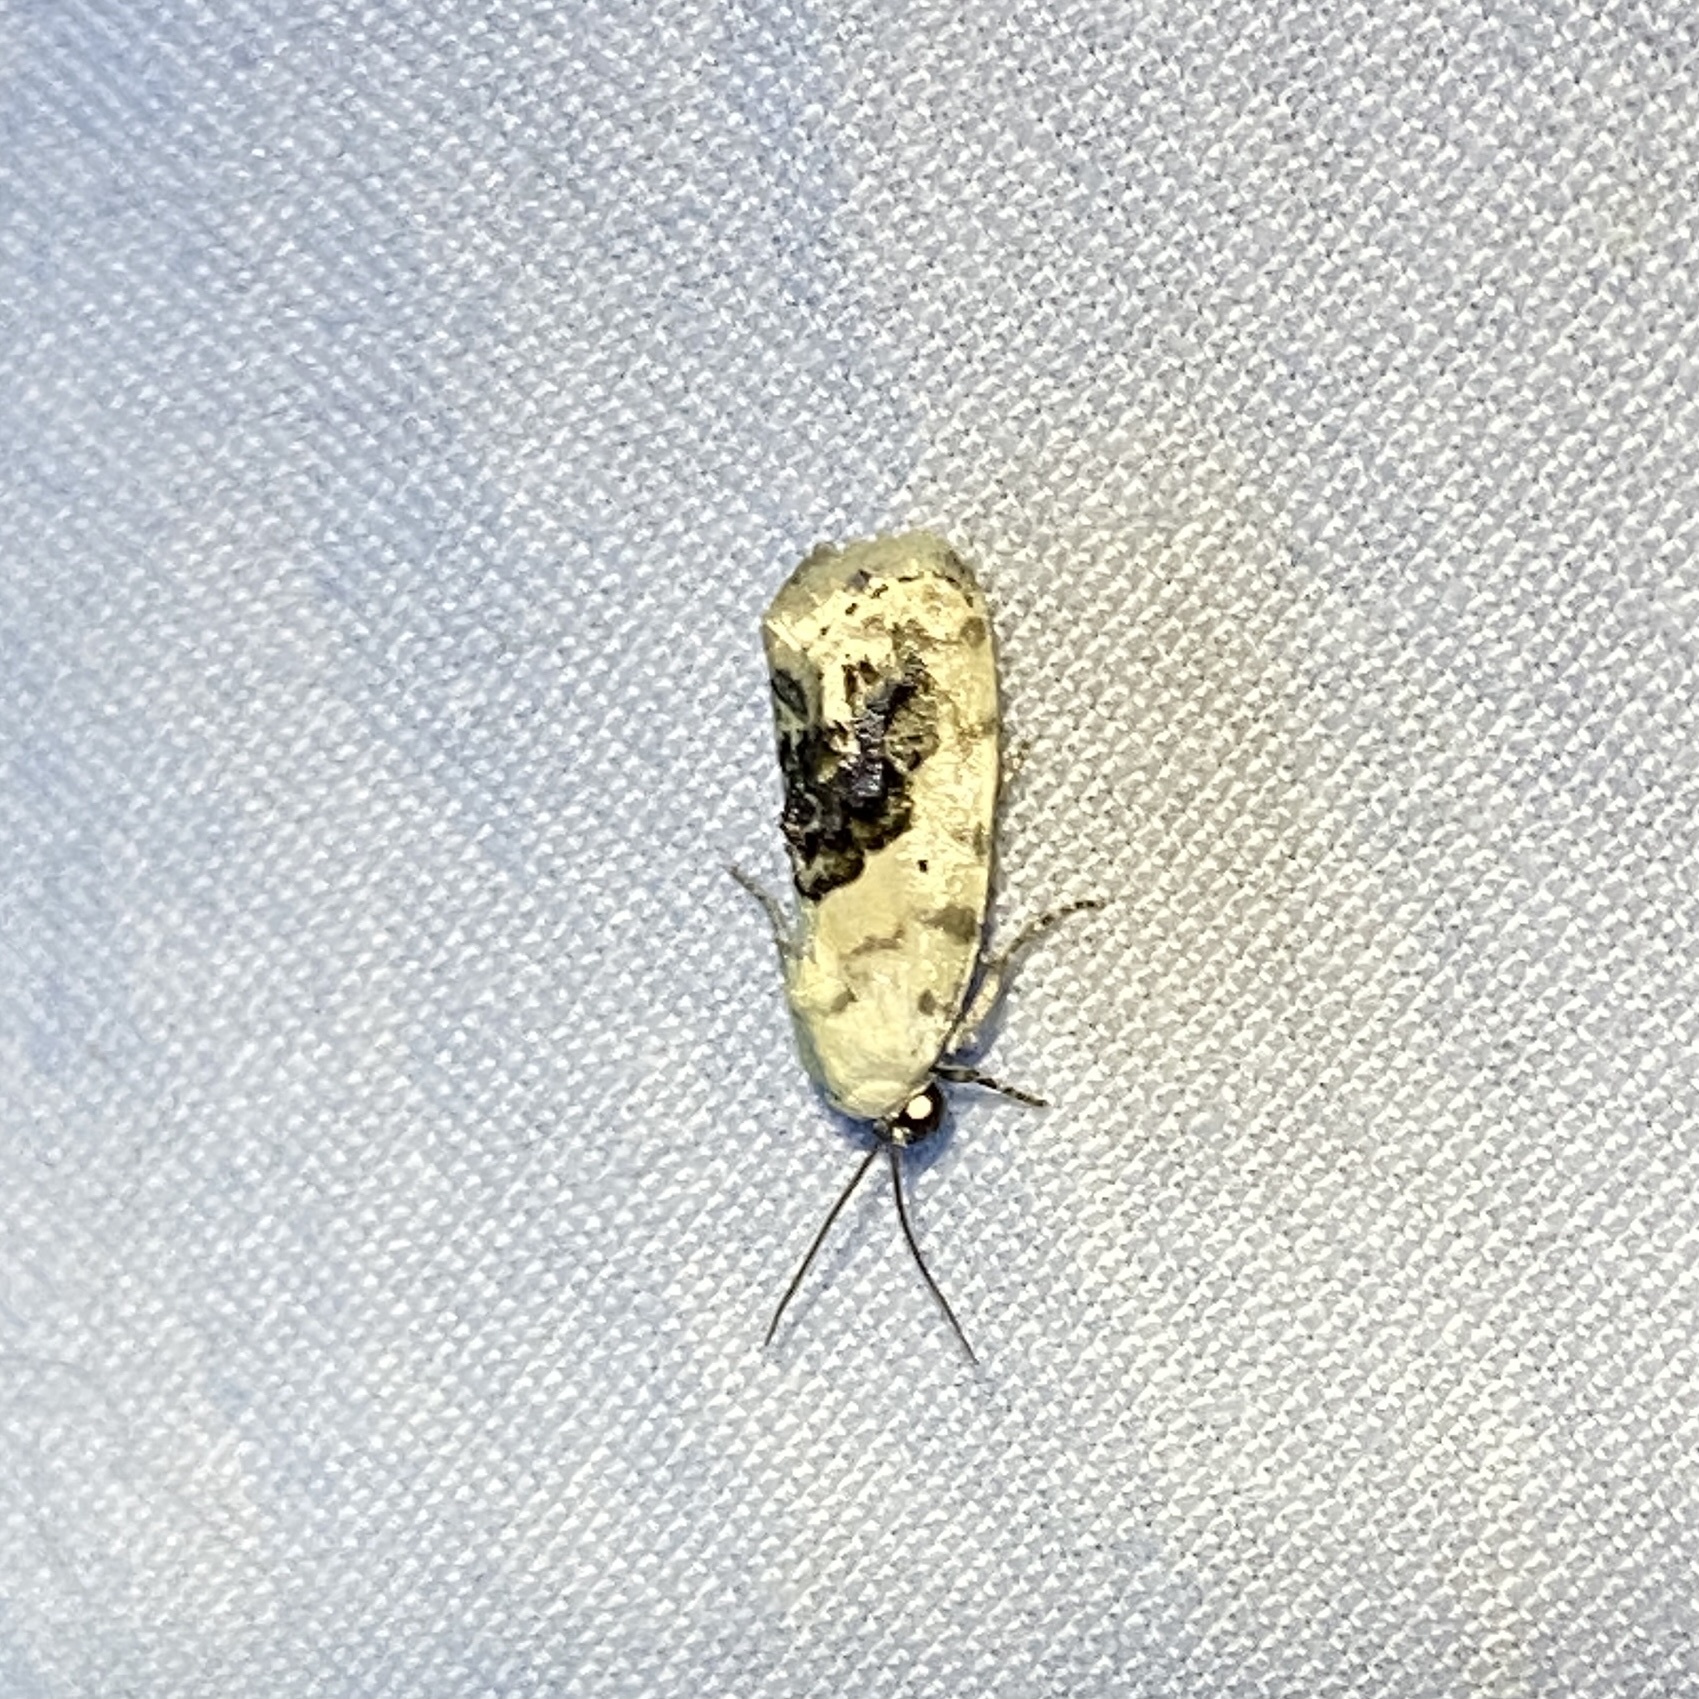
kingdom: Animalia
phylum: Arthropoda
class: Insecta
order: Lepidoptera
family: Noctuidae
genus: Acontia
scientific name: Acontia erastrioides
